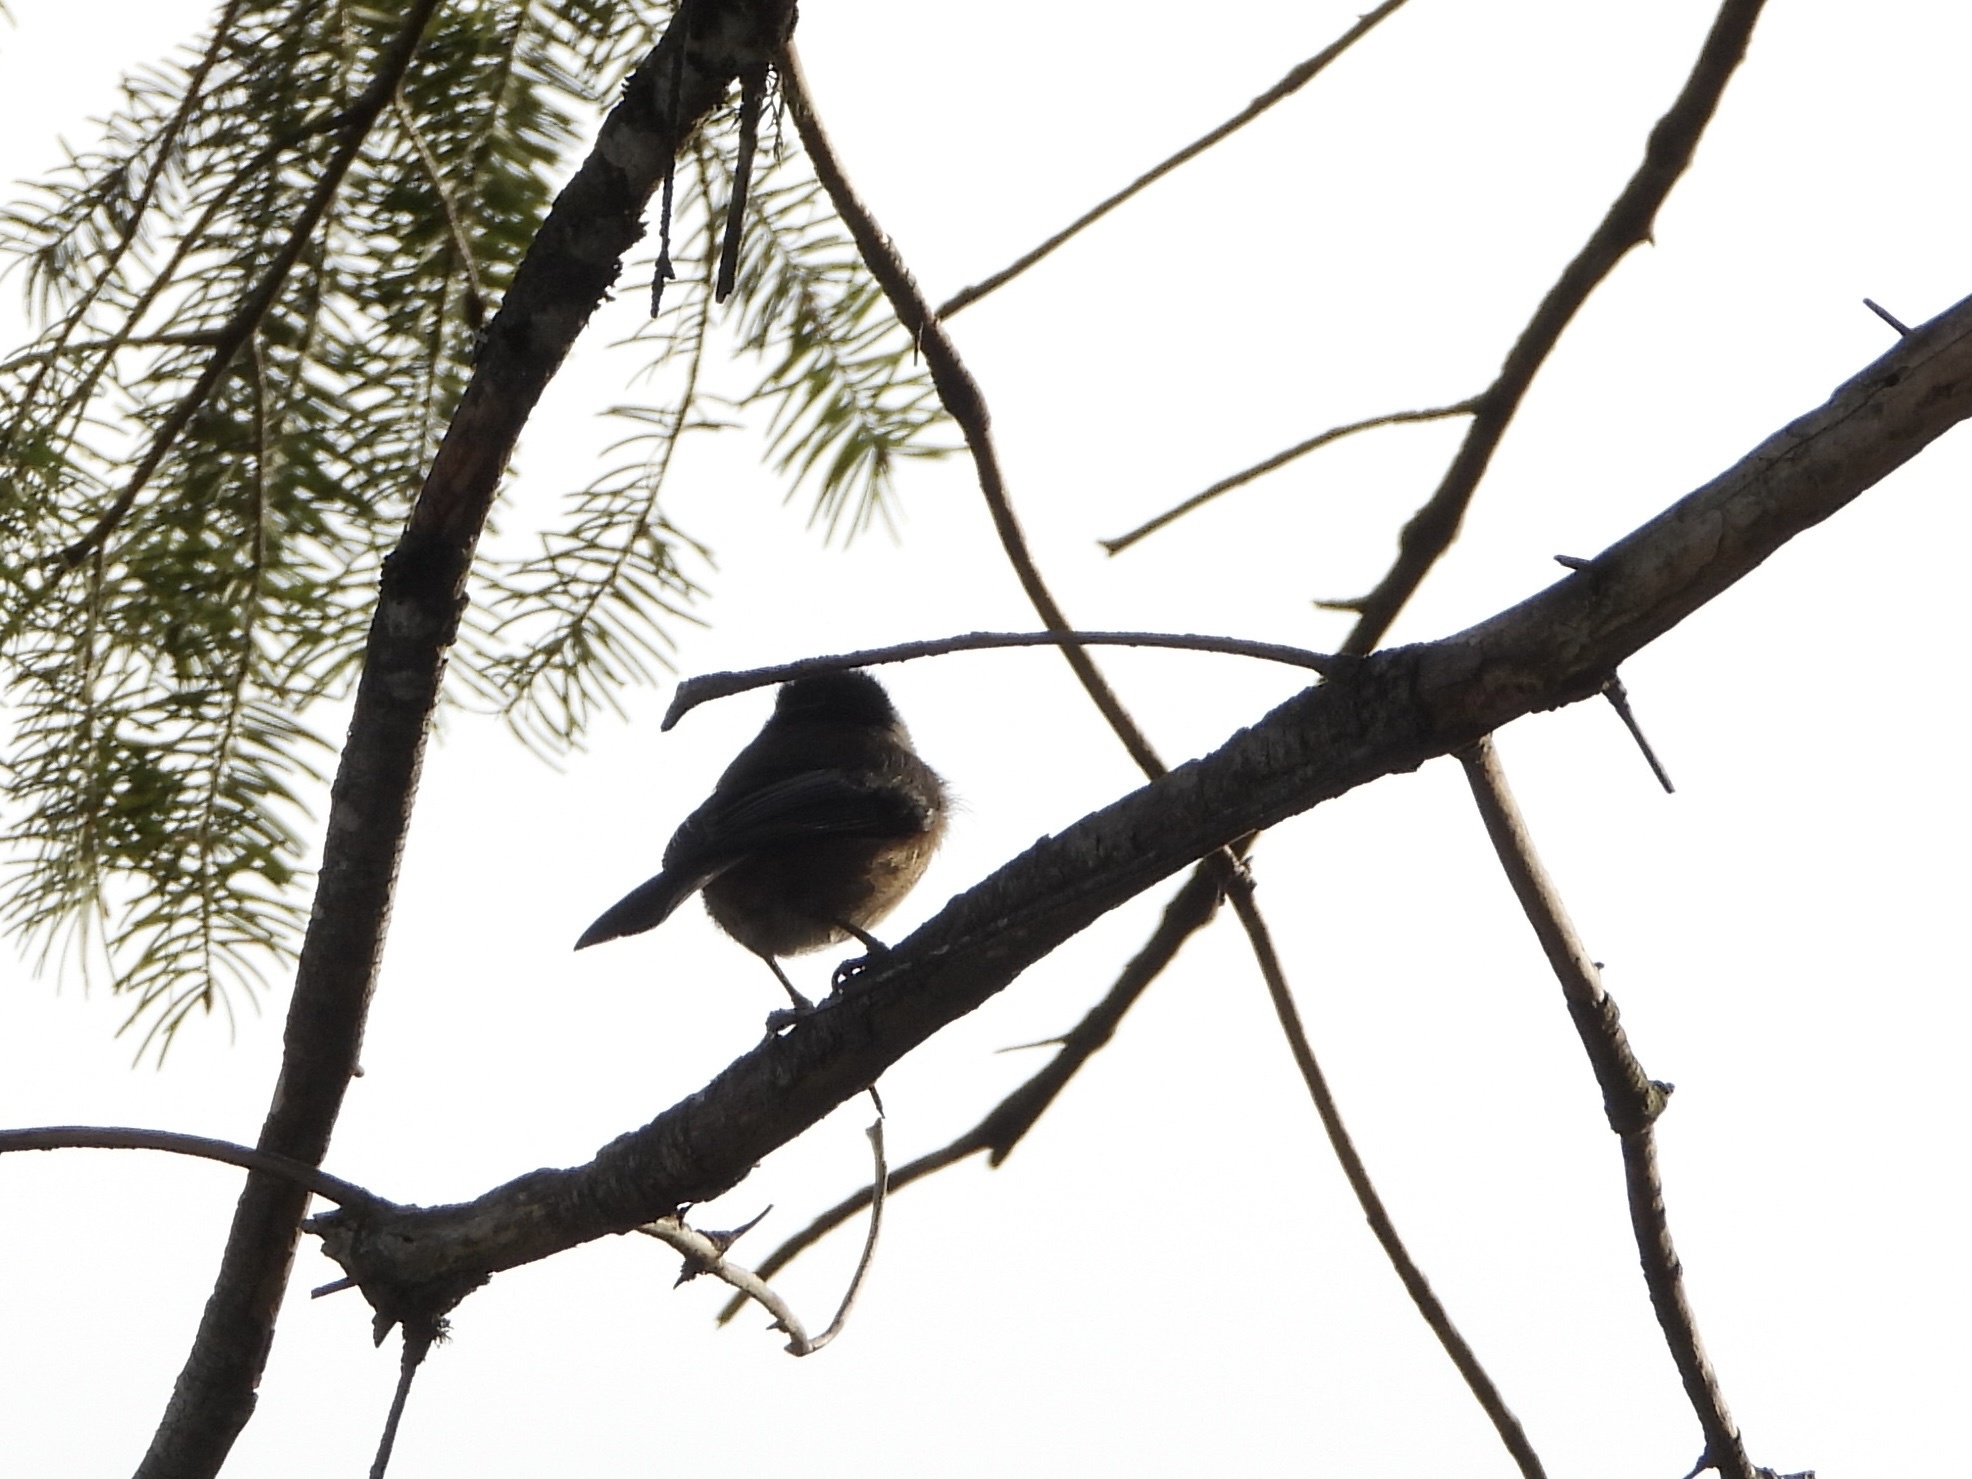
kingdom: Animalia
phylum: Chordata
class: Aves
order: Passeriformes
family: Paridae
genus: Poecile
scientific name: Poecile atricapillus
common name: Black-capped chickadee
